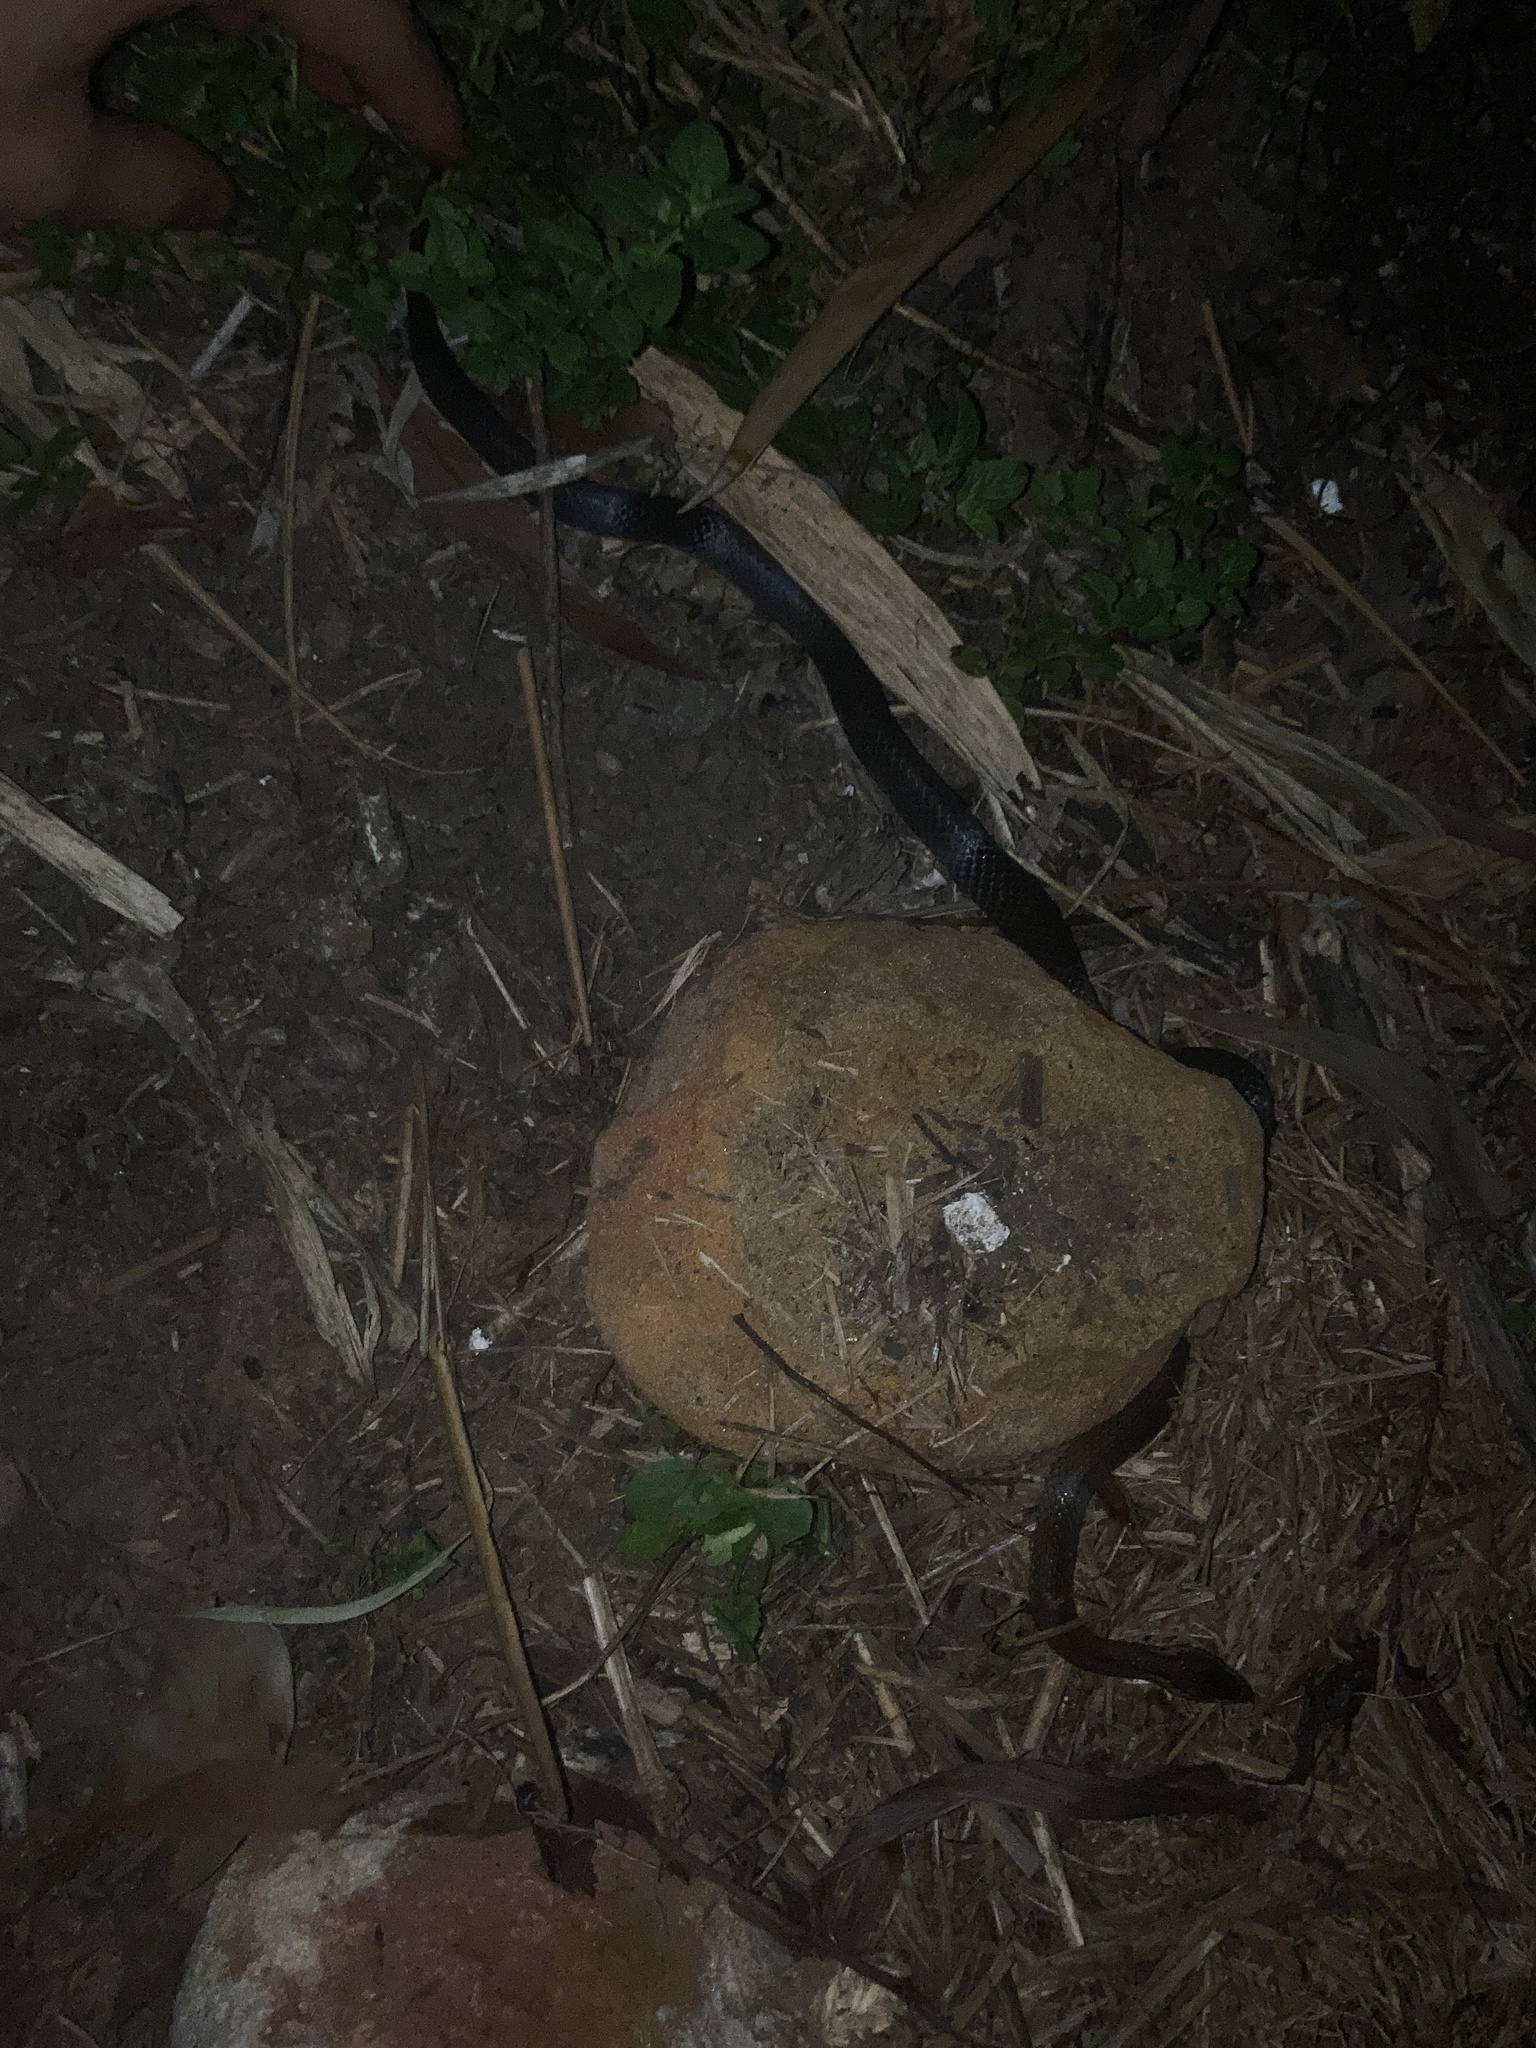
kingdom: Animalia
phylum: Chordata
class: Squamata
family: Elapidae
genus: Cacophis
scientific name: Cacophis squamulosus
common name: Golden crowned snake
